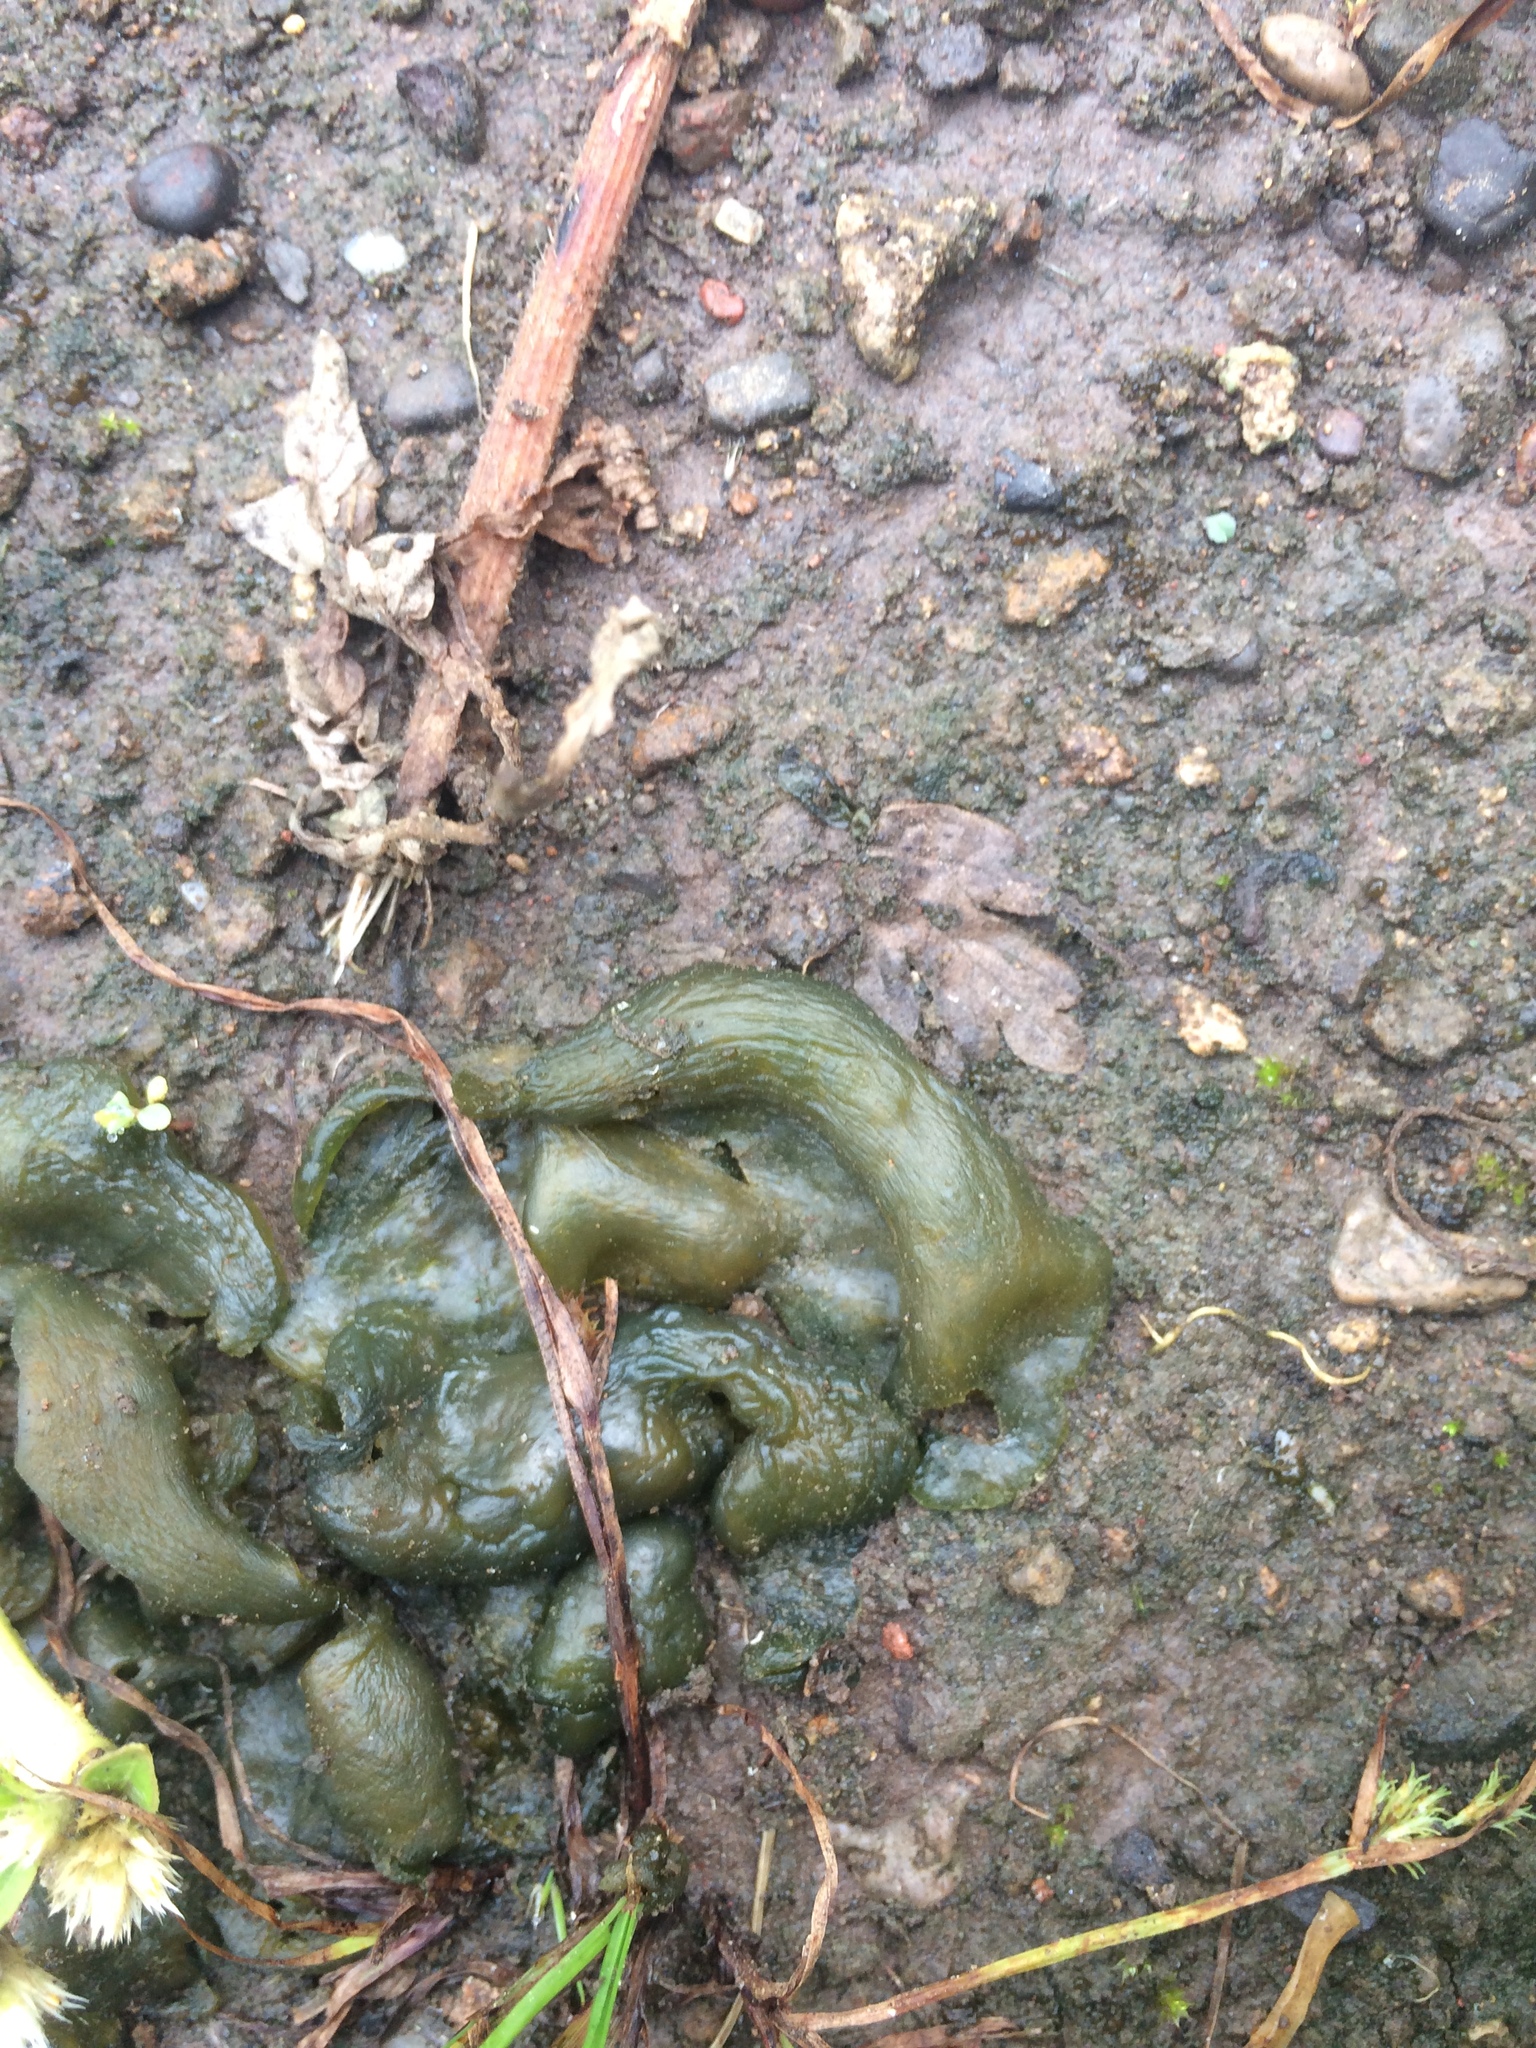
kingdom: Bacteria
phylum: Cyanobacteria
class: Cyanobacteriia
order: Cyanobacteriales
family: Nostocaceae
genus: Nostoc
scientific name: Nostoc commune
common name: Star jelly
